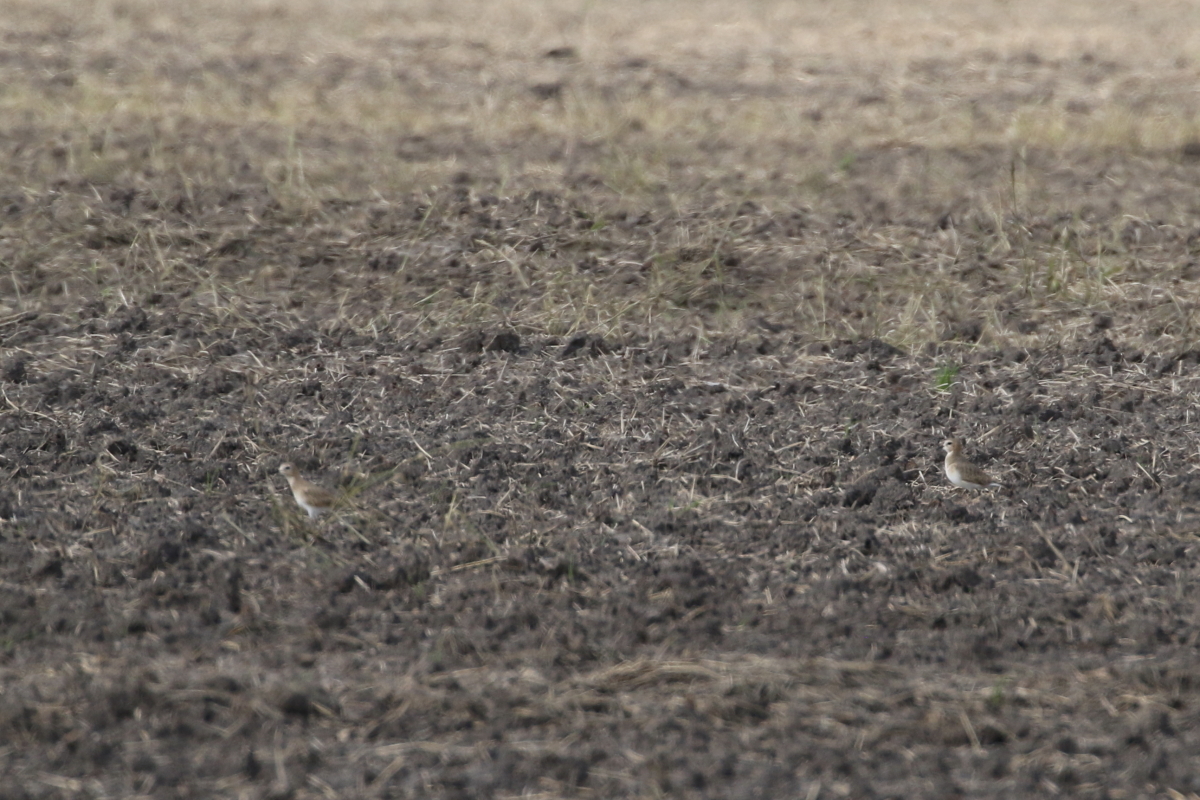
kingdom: Animalia
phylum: Chordata
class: Aves
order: Charadriiformes
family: Charadriidae
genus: Anarhynchus
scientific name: Anarhynchus
